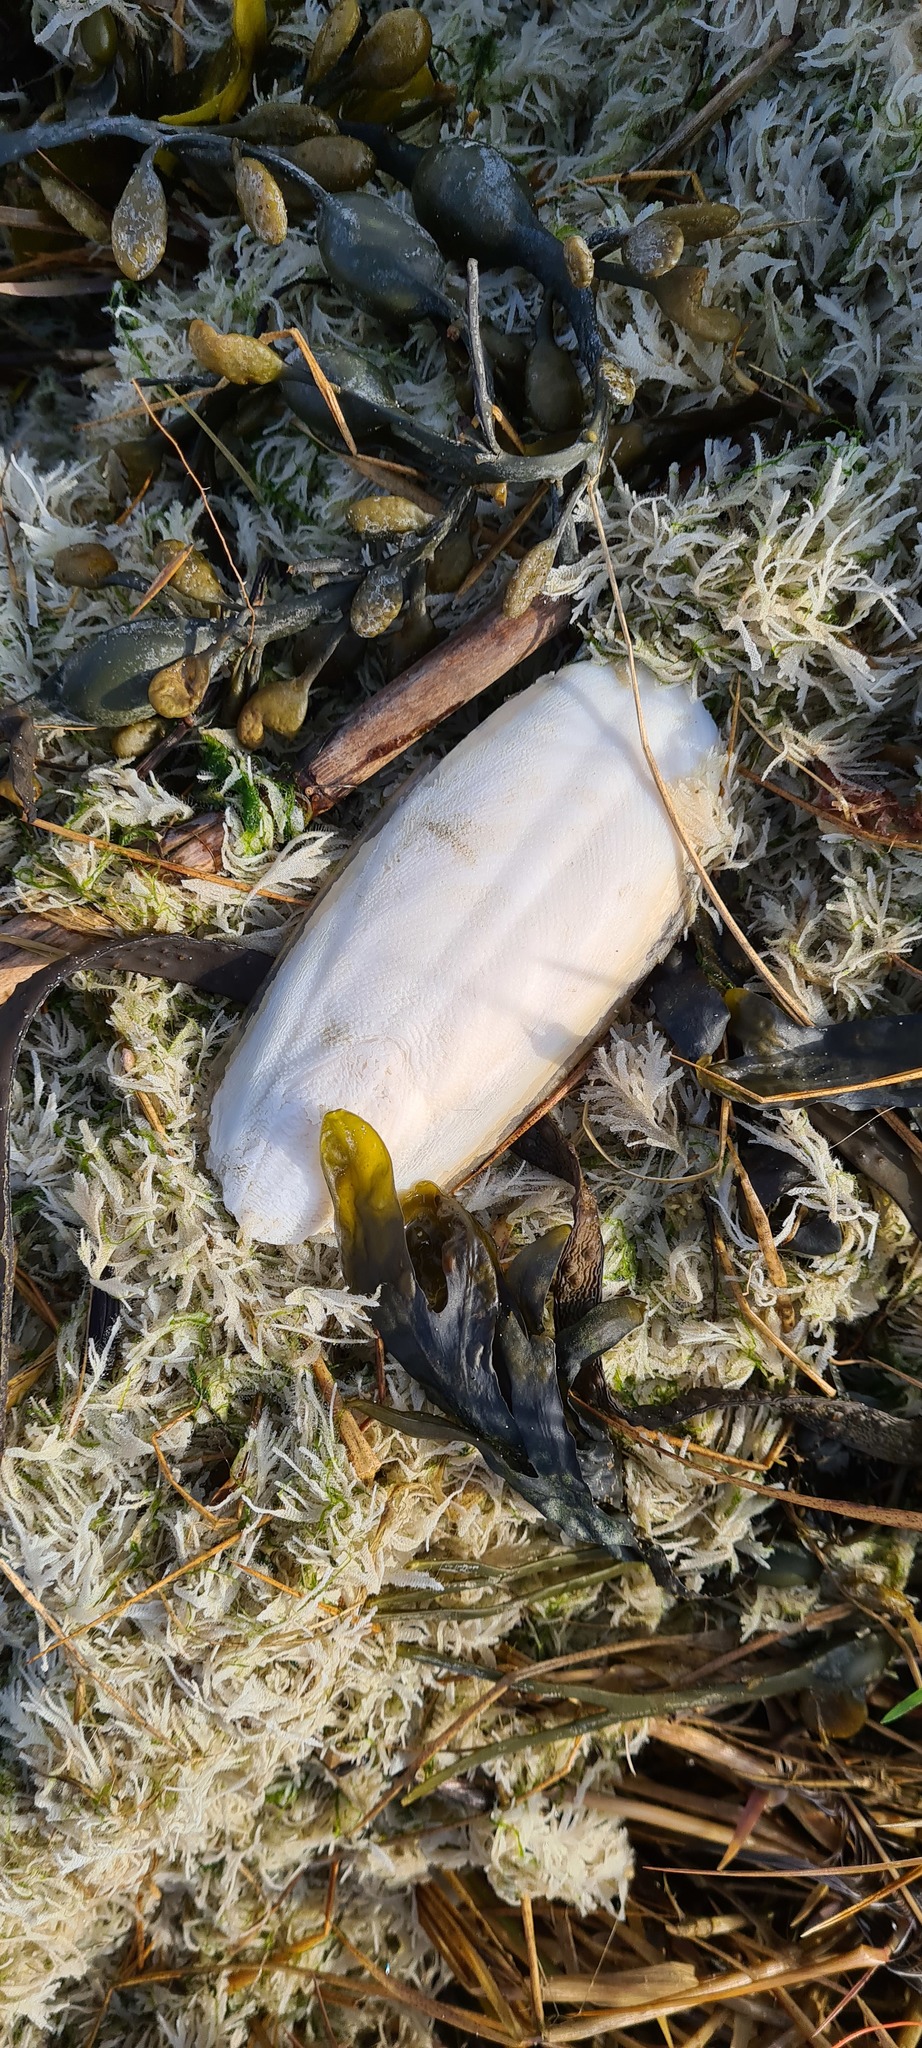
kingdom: Animalia
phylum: Mollusca
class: Cephalopoda
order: Sepiida
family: Sepiidae
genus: Sepia
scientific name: Sepia officinalis
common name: Common cuttlefish
